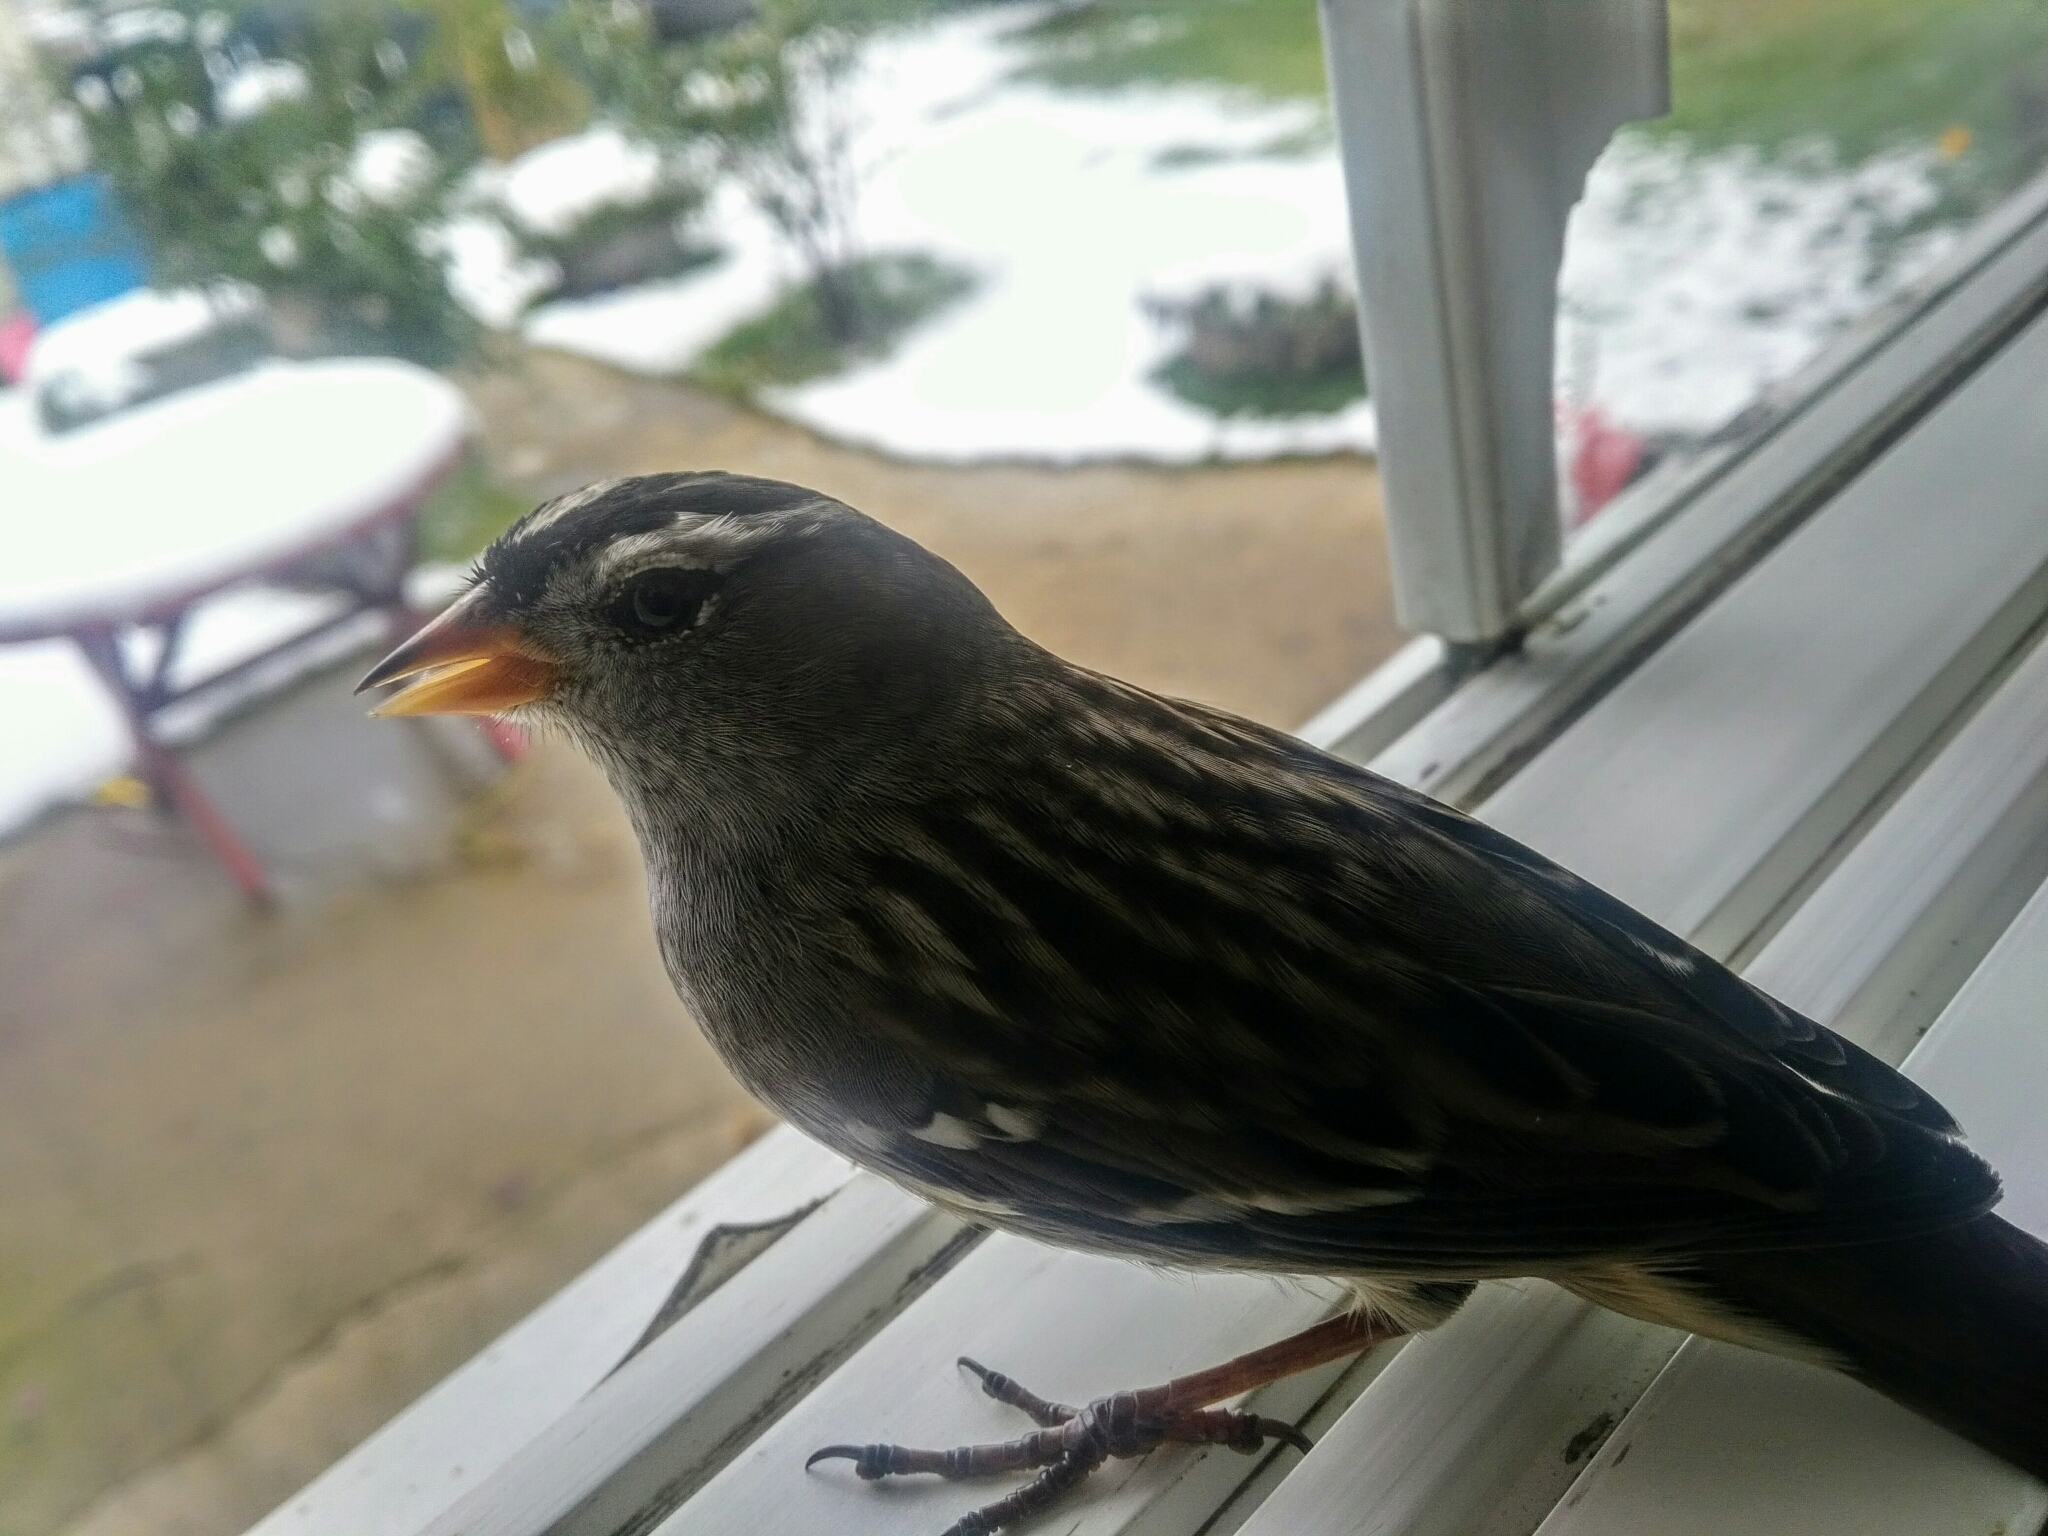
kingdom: Animalia
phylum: Chordata
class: Aves
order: Passeriformes
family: Passerellidae
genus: Zonotrichia
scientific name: Zonotrichia leucophrys
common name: White-crowned sparrow
